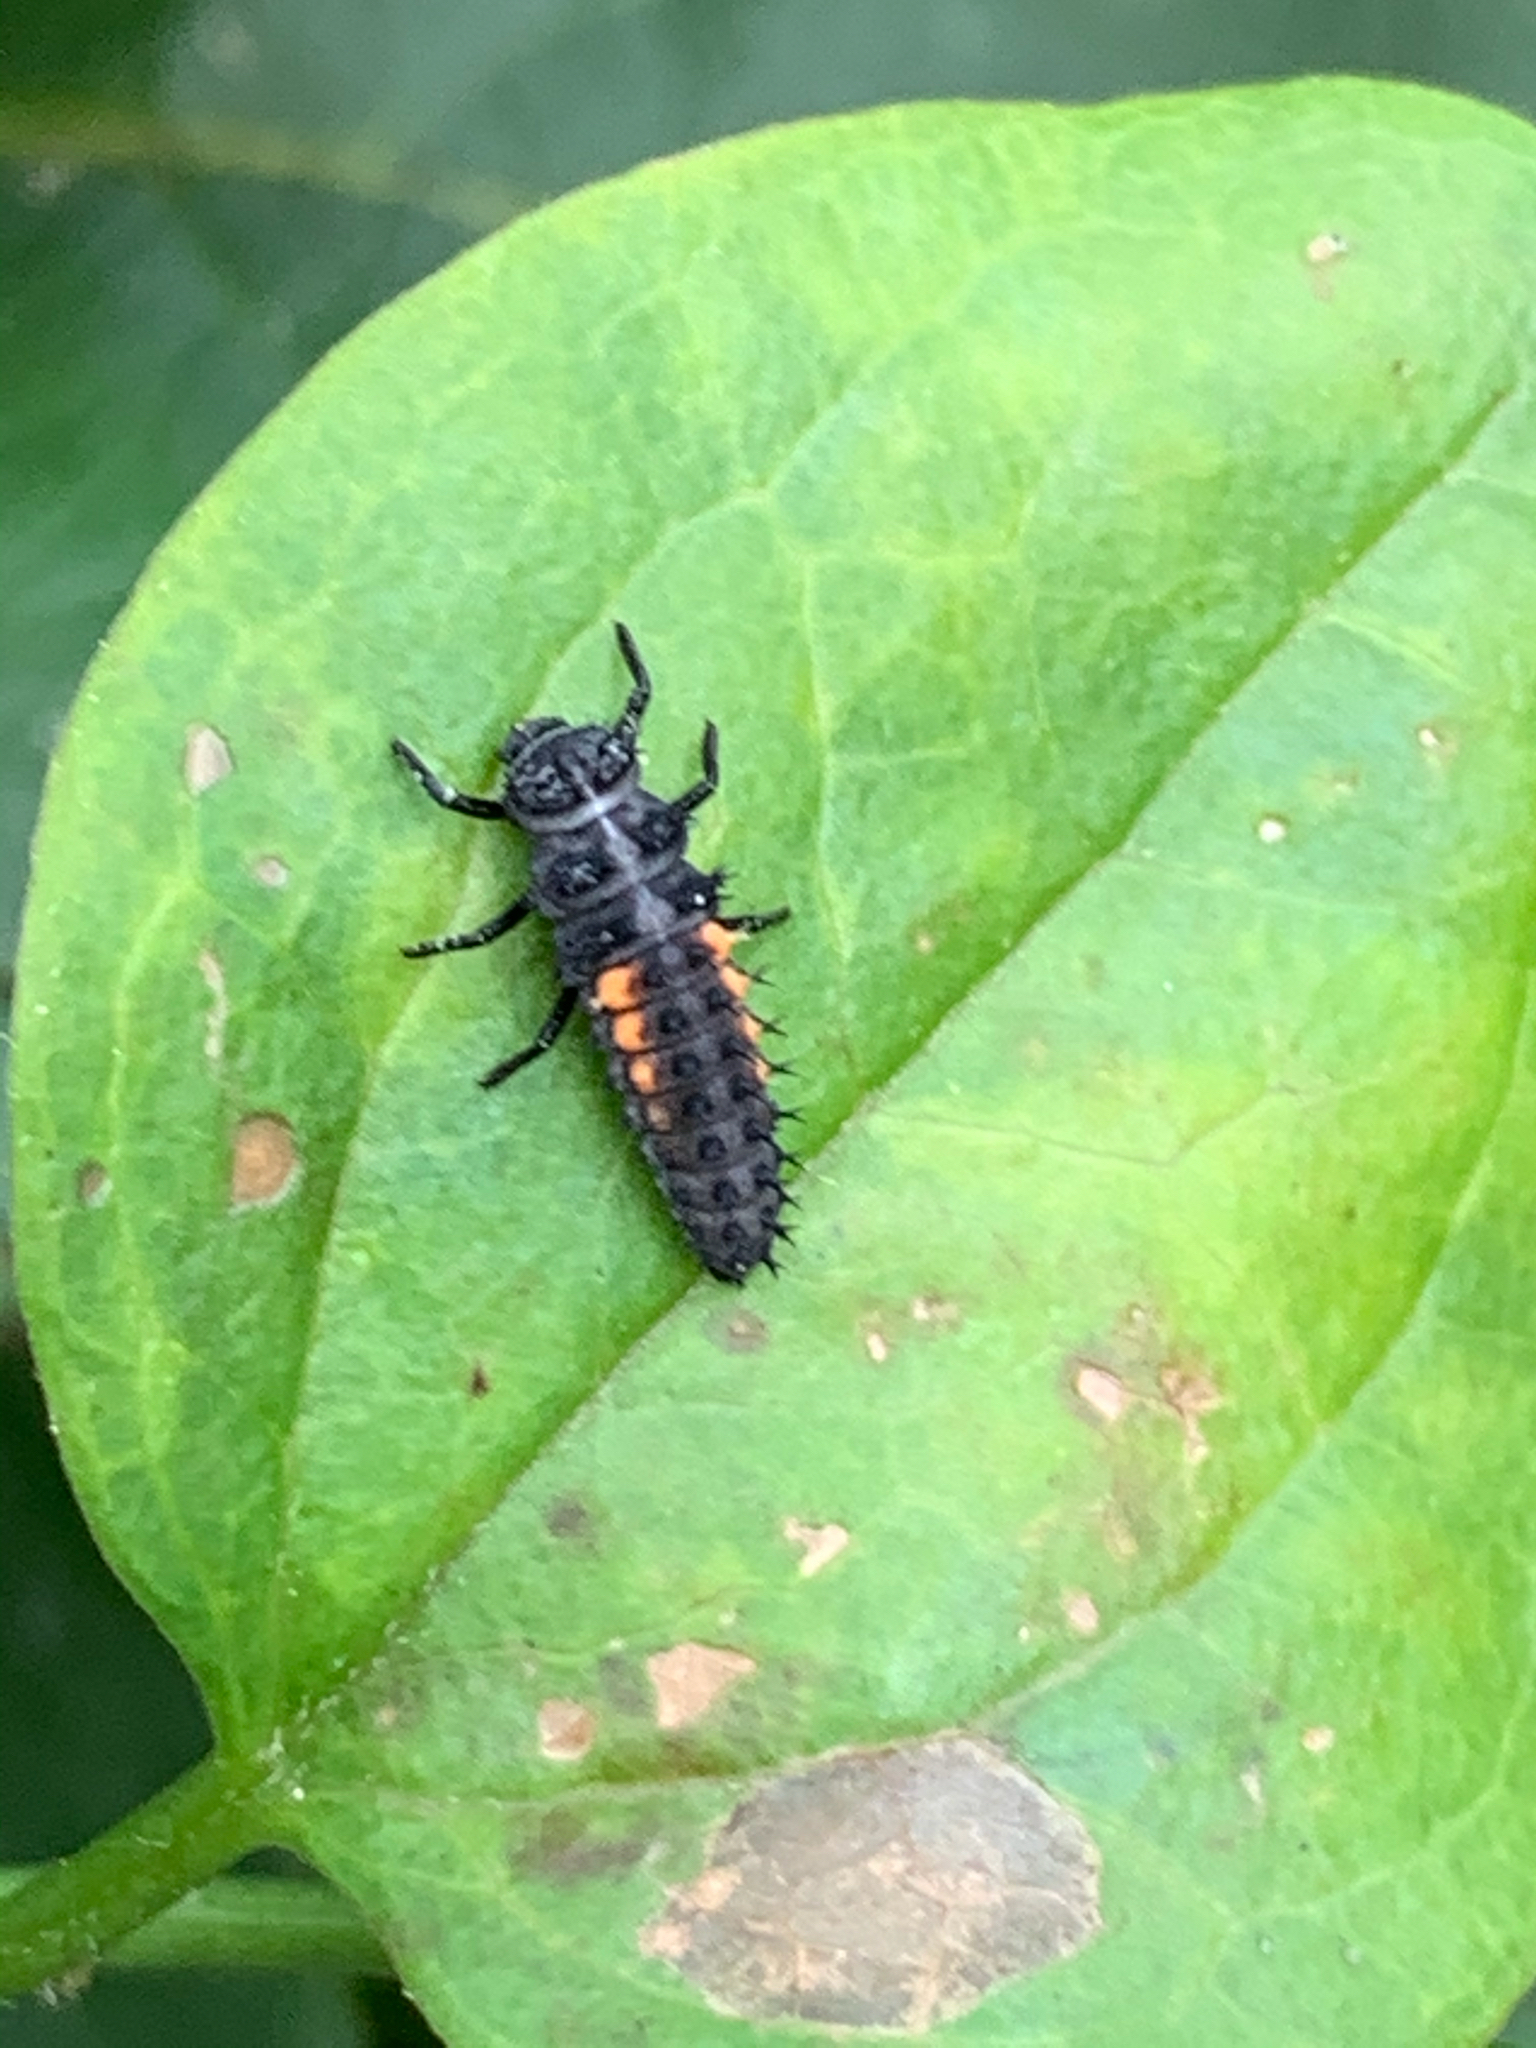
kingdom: Animalia
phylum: Arthropoda
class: Insecta
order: Coleoptera
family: Coccinellidae
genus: Harmonia
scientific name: Harmonia axyridis
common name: Harlequin ladybird
